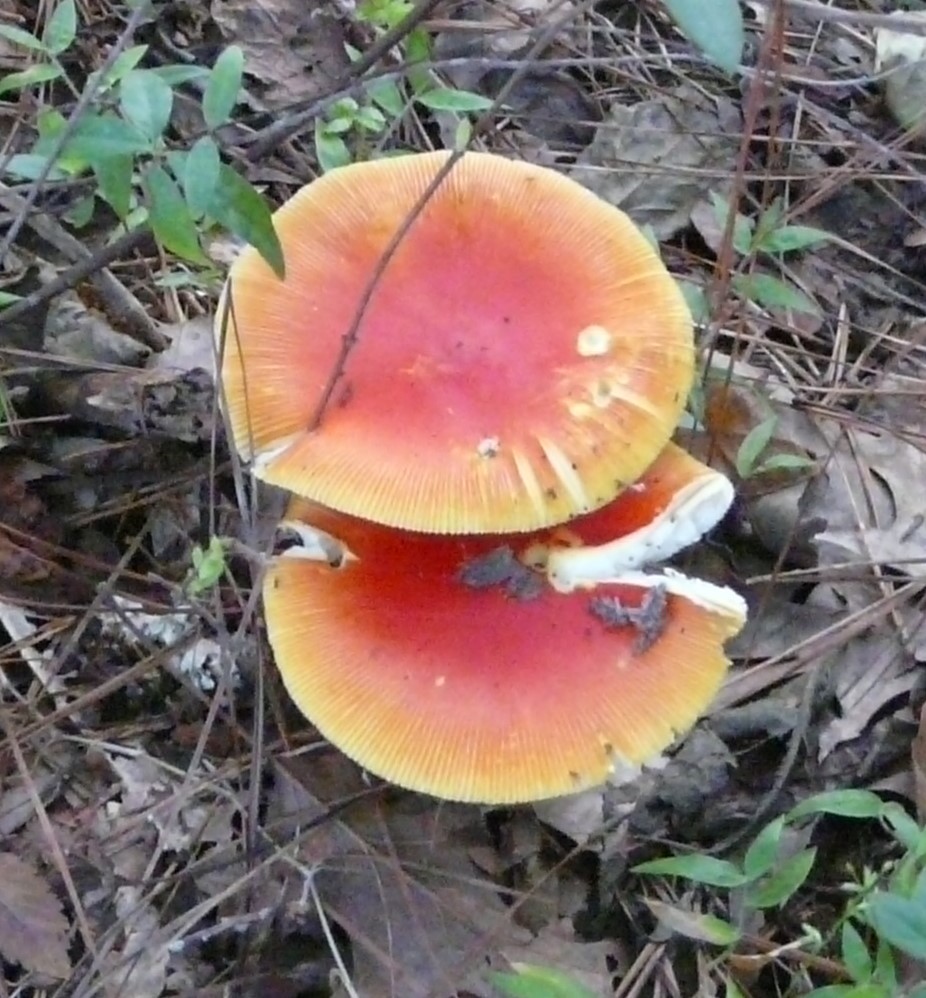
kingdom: Fungi
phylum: Basidiomycota
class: Agaricomycetes
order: Agaricales
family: Amanitaceae
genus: Amanita
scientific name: Amanita jacksonii
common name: Jackson's slender caesar
